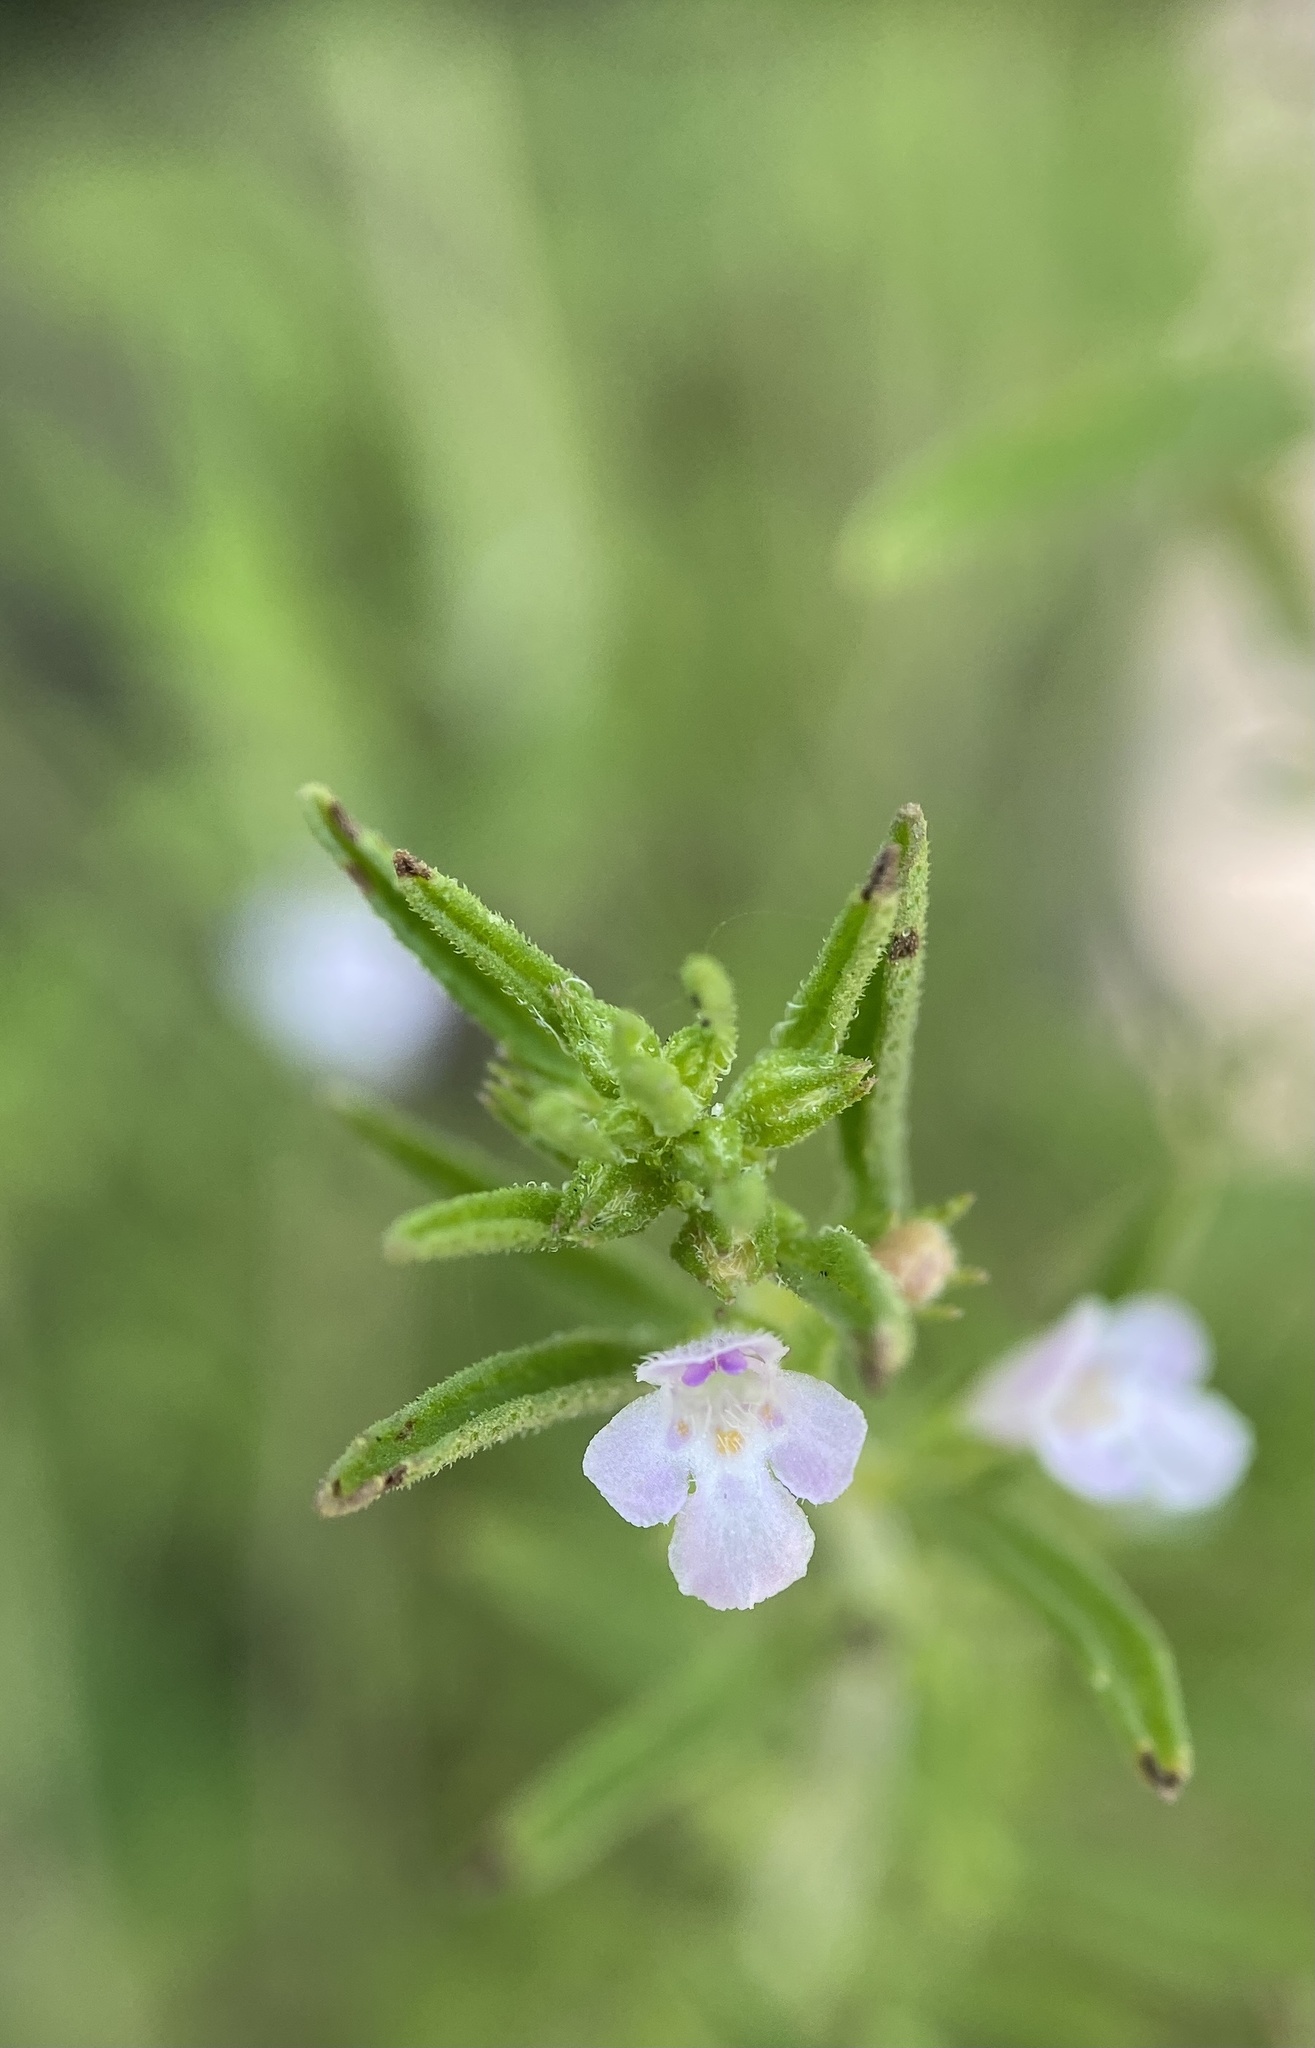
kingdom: Plantae
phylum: Tracheophyta
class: Magnoliopsida
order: Lamiales
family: Lamiaceae
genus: Thymus
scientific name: Thymus vulgaris
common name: Garden thyme
